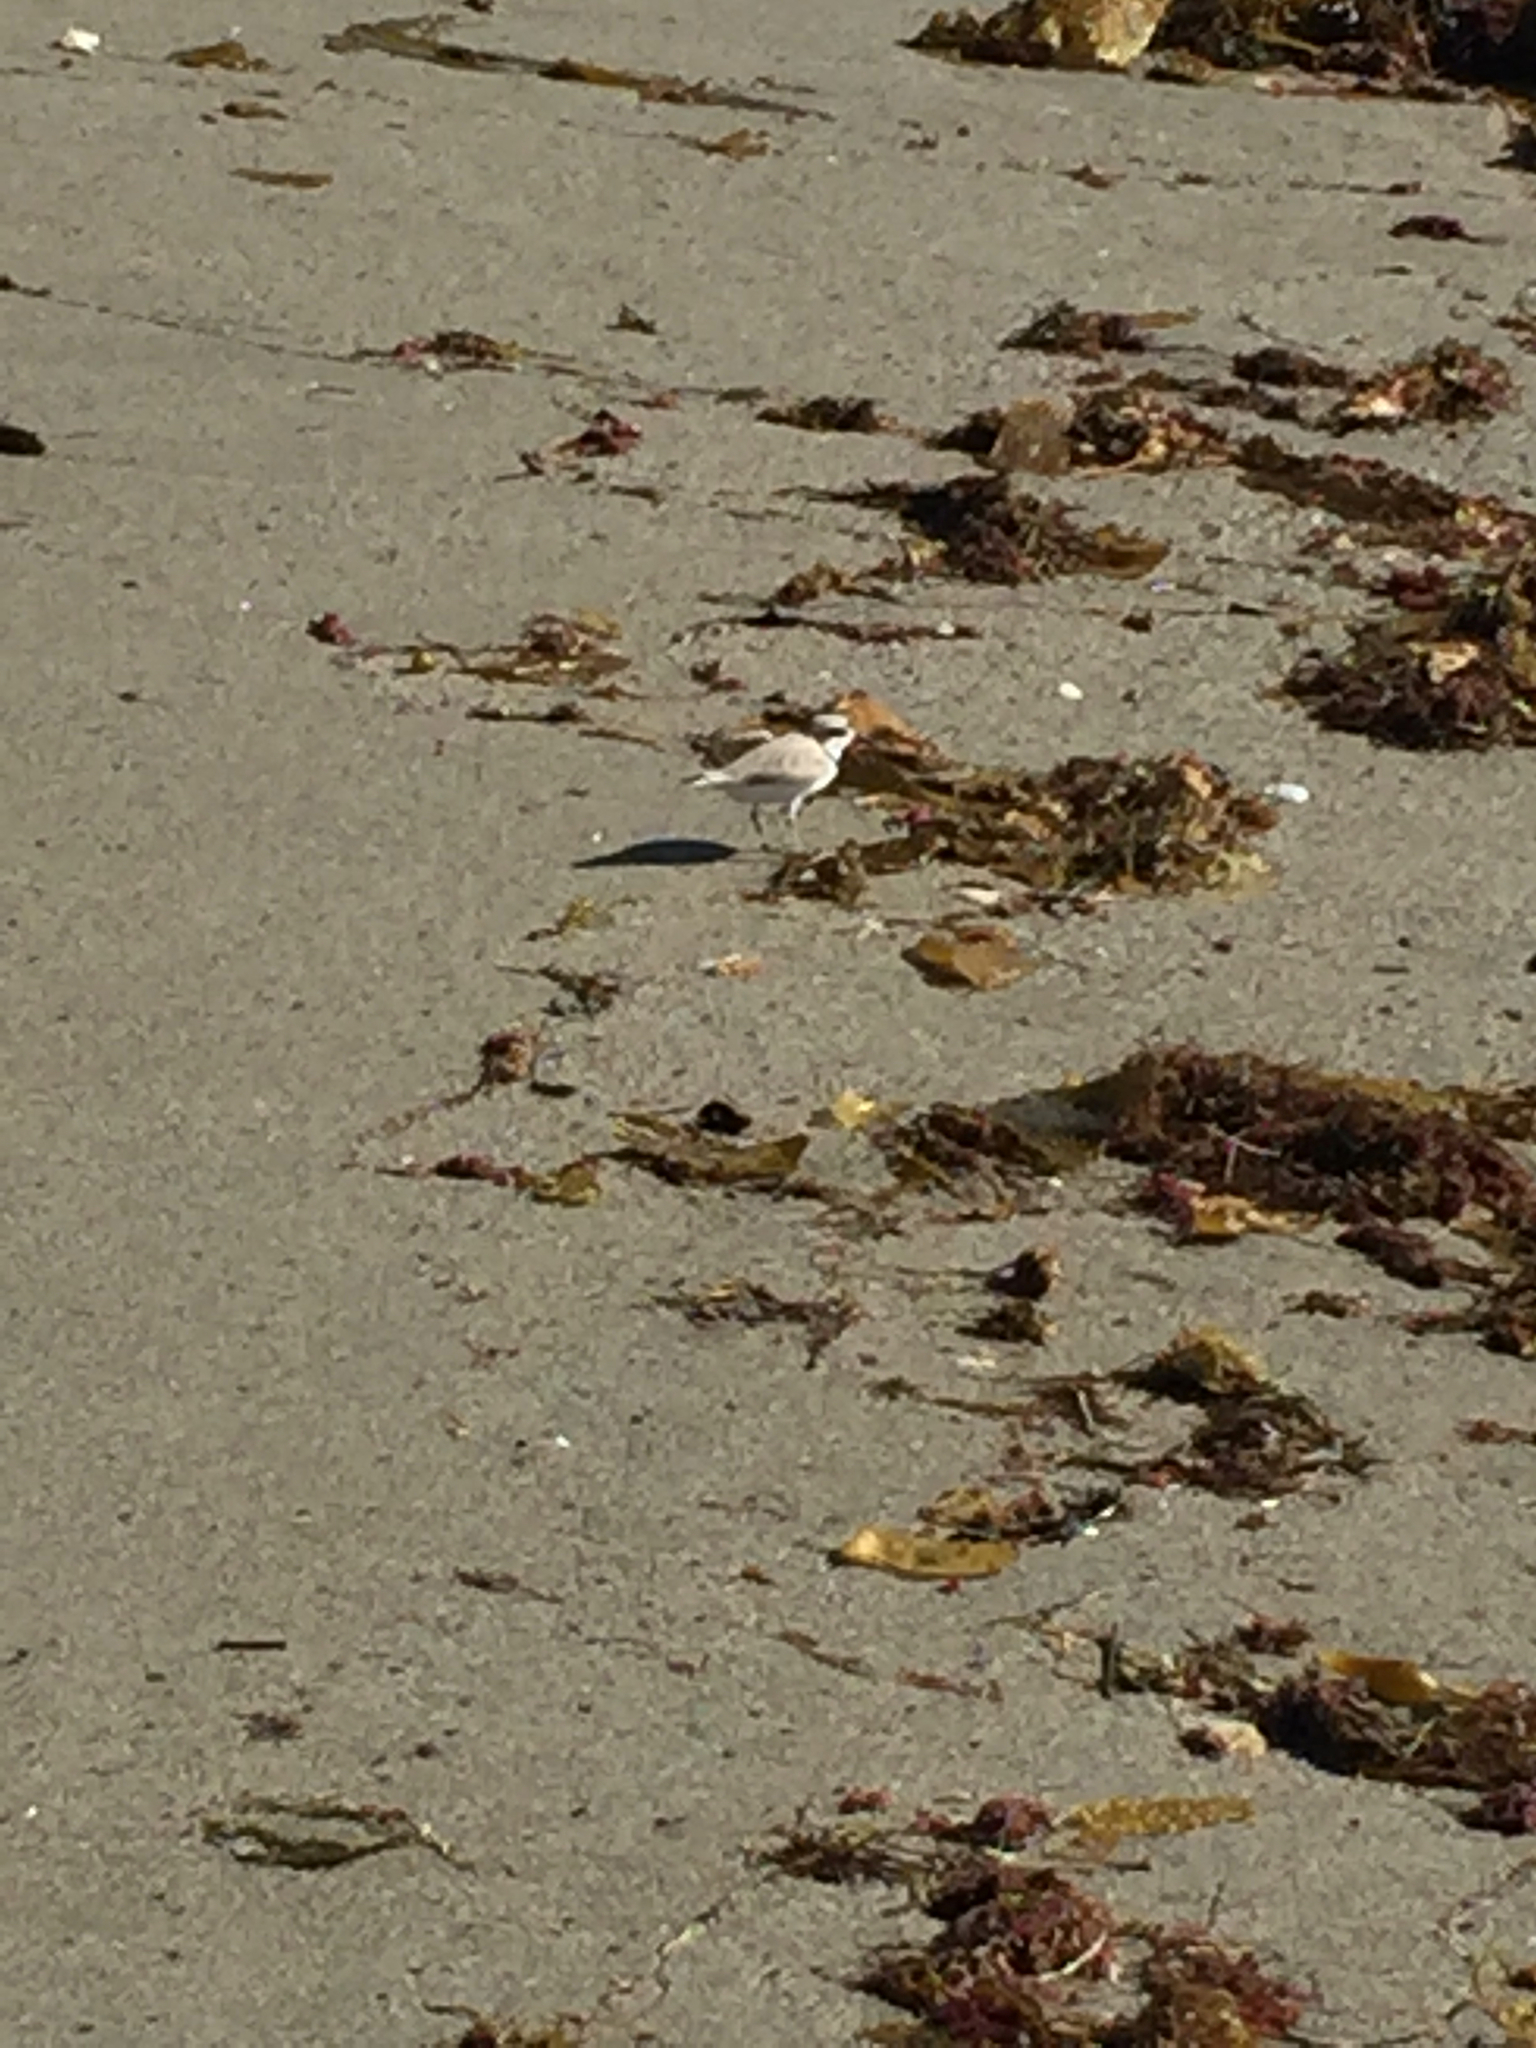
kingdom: Animalia
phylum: Chordata
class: Aves
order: Charadriiformes
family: Charadriidae
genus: Anarhynchus
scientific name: Anarhynchus
